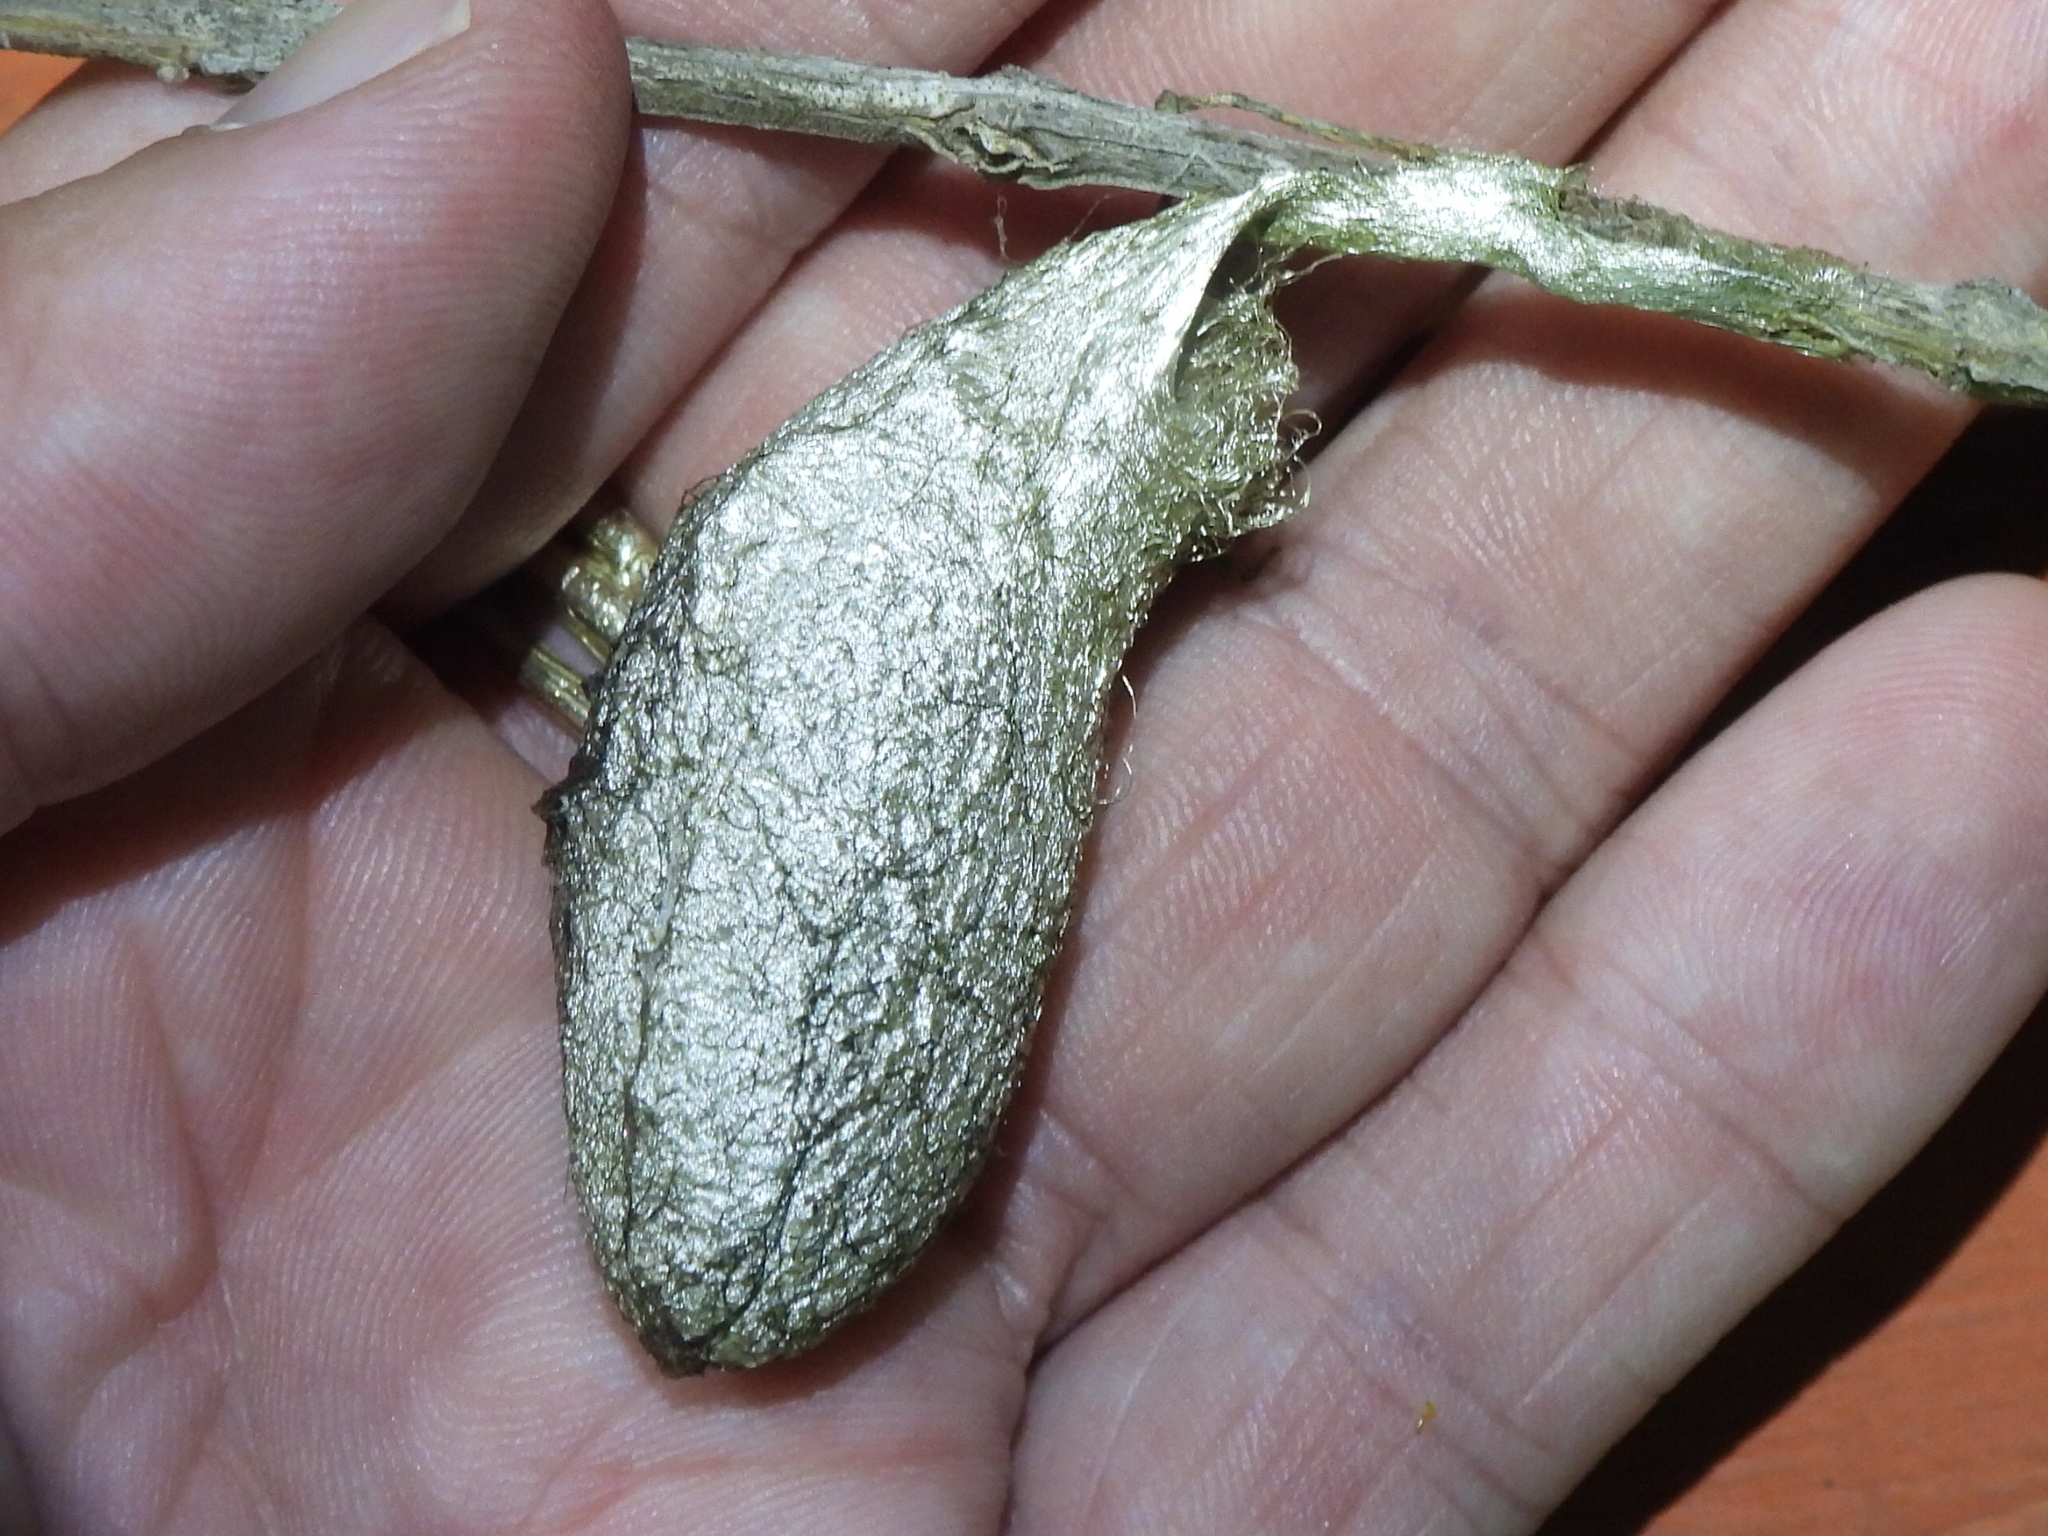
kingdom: Animalia
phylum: Arthropoda
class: Insecta
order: Lepidoptera
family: Saturniidae
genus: Rothschildia
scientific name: Rothschildia lebeau
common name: Lebeau's rothschildia
